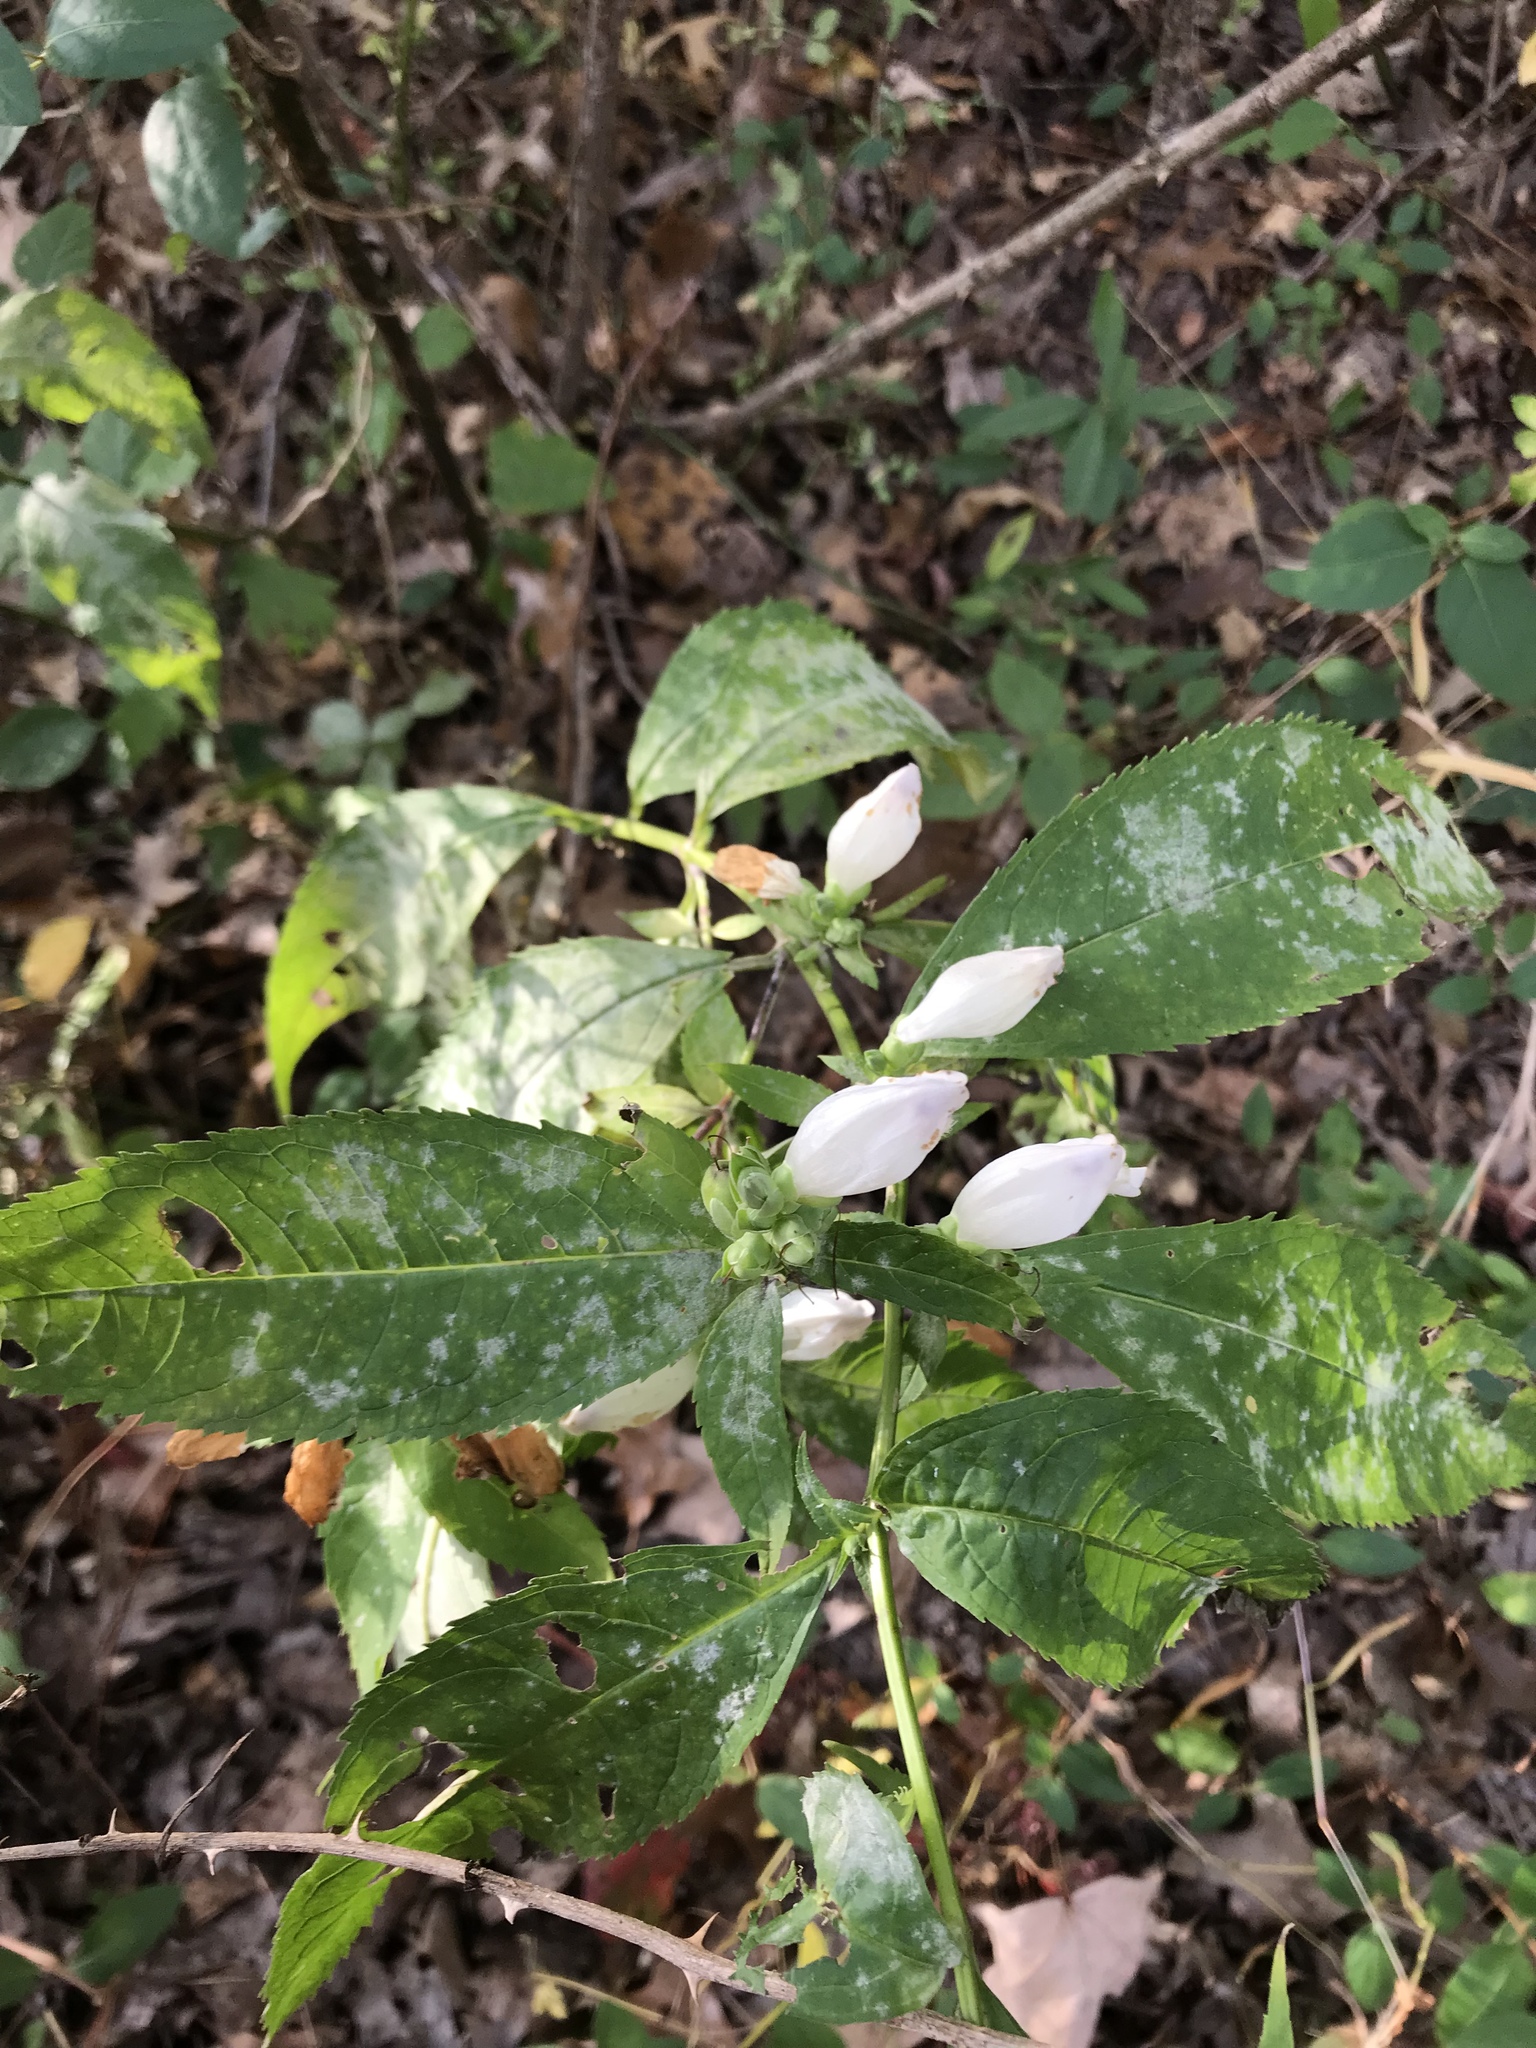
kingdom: Plantae
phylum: Tracheophyta
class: Magnoliopsida
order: Lamiales
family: Plantaginaceae
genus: Chelone
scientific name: Chelone glabra
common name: Snakehead
